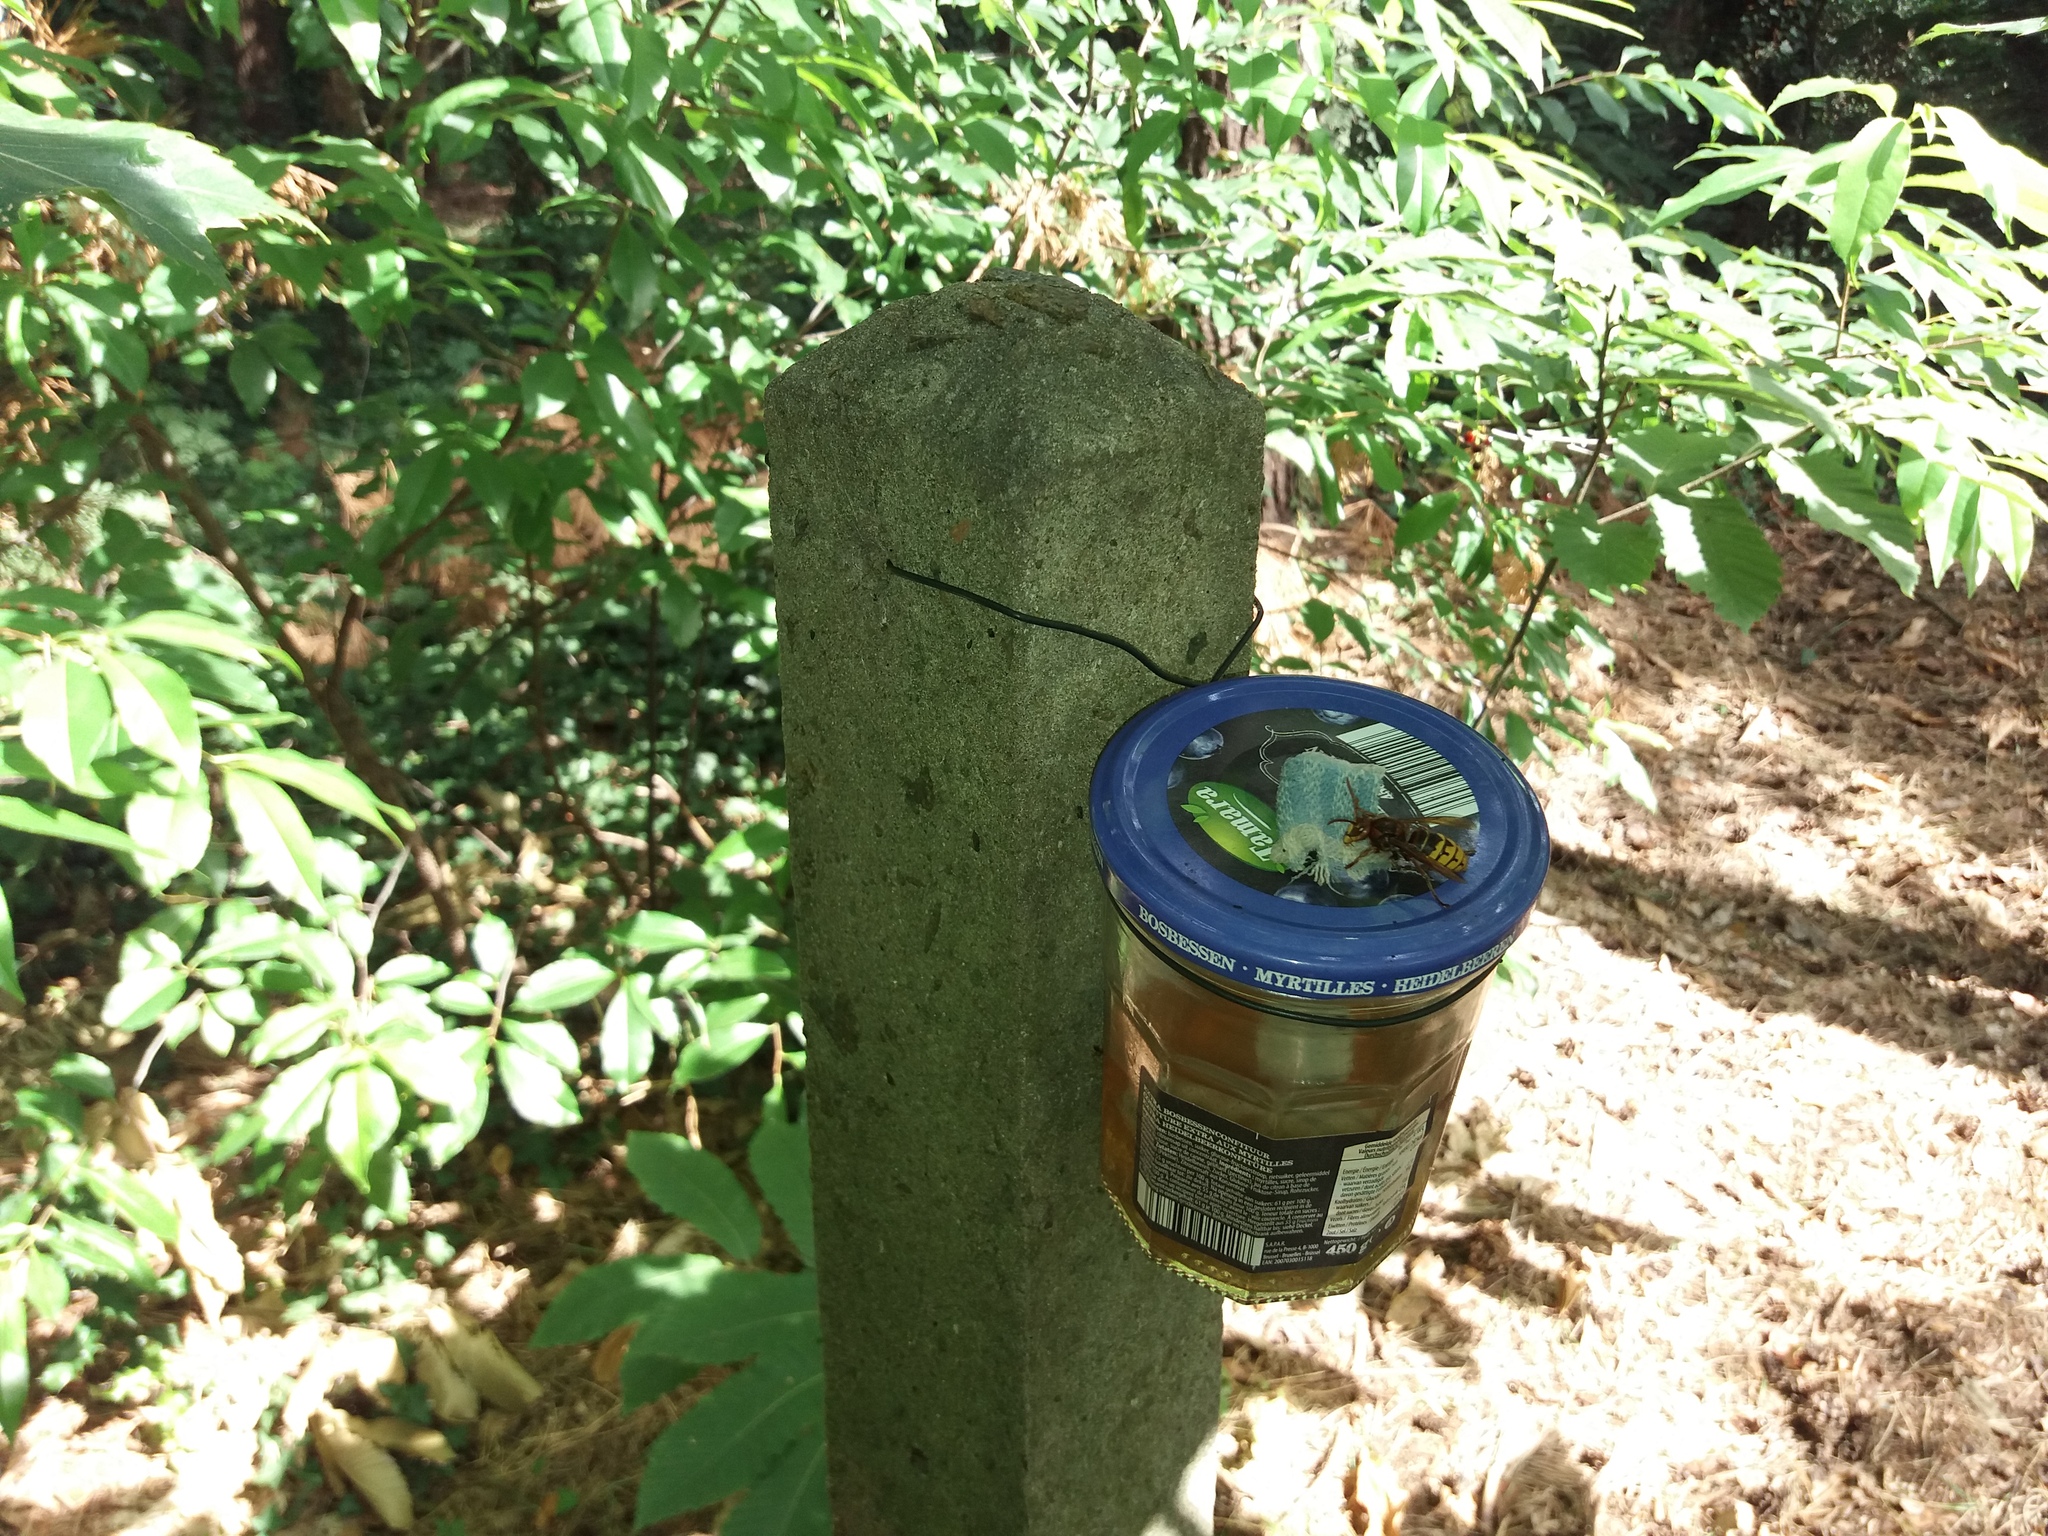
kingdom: Animalia
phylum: Arthropoda
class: Insecta
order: Hymenoptera
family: Vespidae
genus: Vespa
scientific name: Vespa crabro
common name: Hornet
